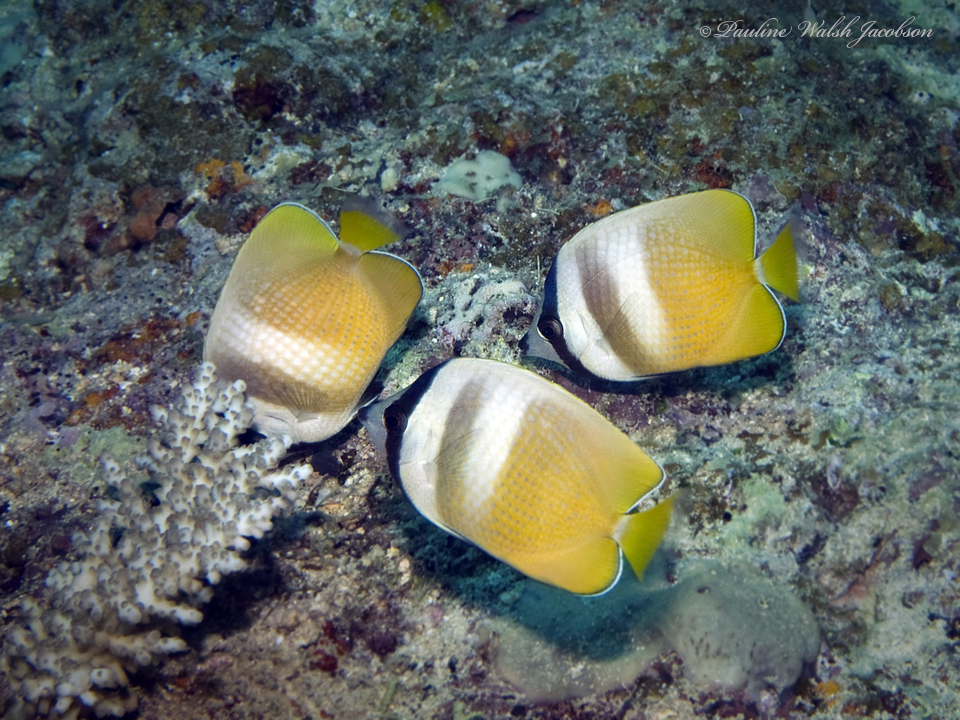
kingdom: Animalia
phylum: Chordata
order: Perciformes
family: Chaetodontidae
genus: Chaetodon
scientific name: Chaetodon kleinii
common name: Klein's butterflyfish
